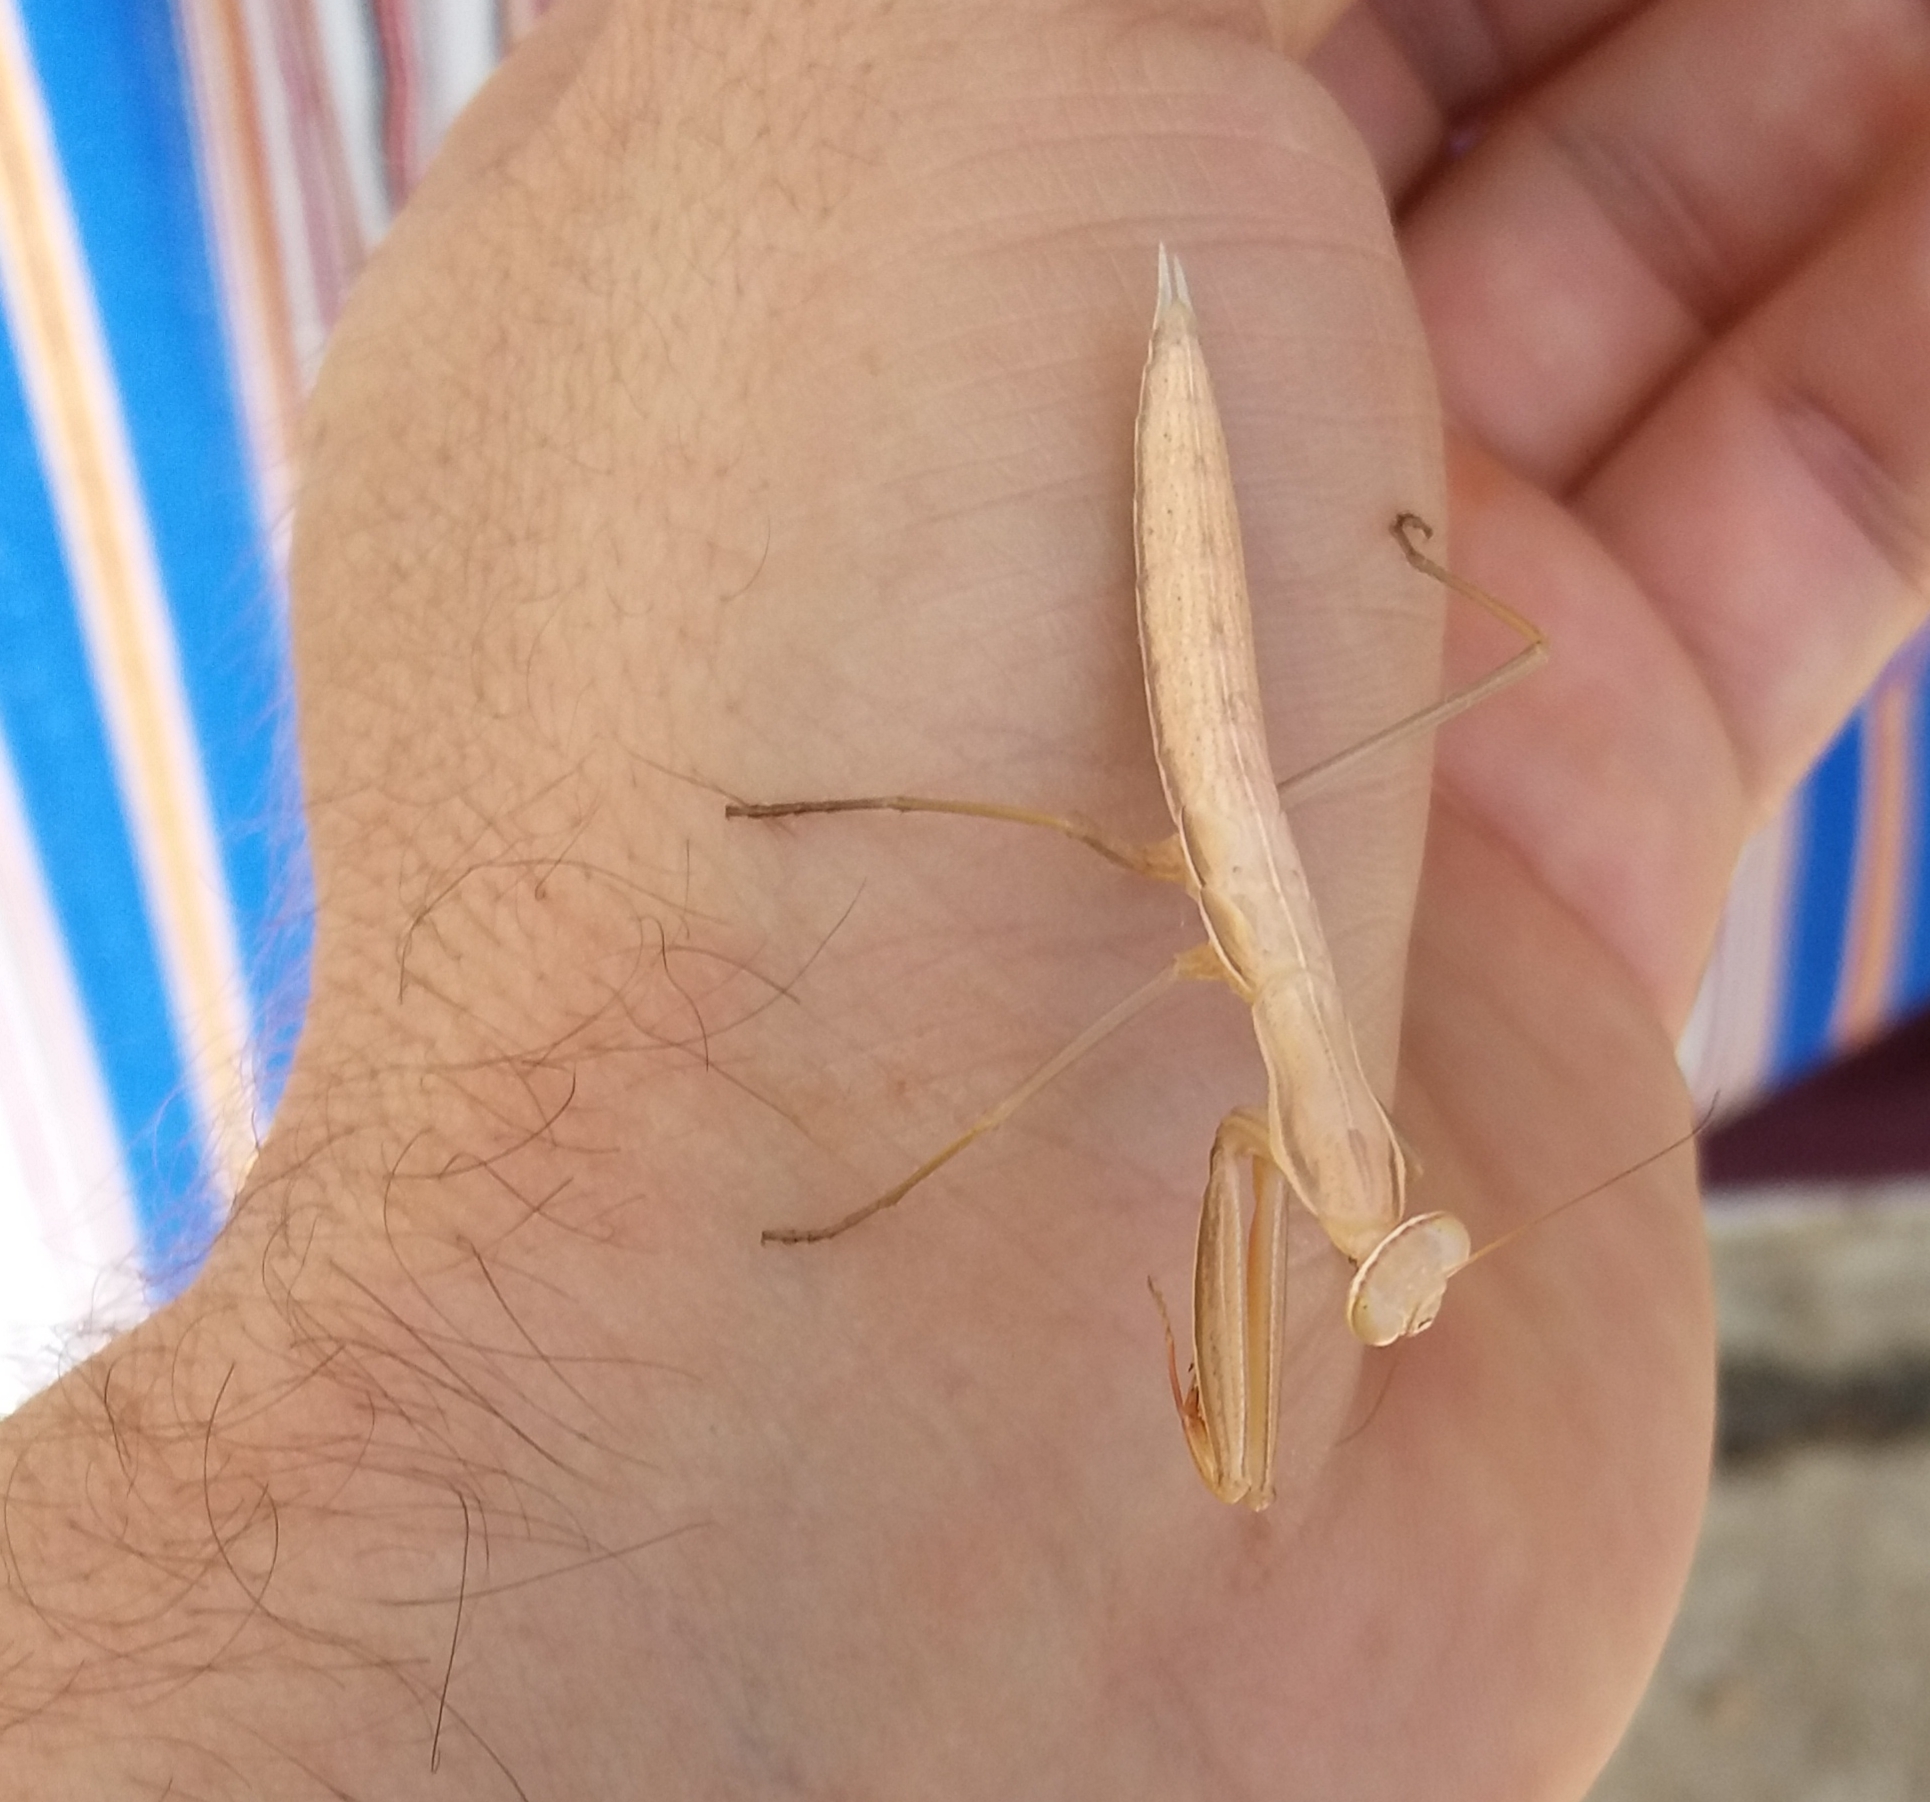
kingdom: Animalia
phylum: Arthropoda
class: Insecta
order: Mantodea
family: Mantidae
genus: Mantis
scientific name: Mantis religiosa
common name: Praying mantis
